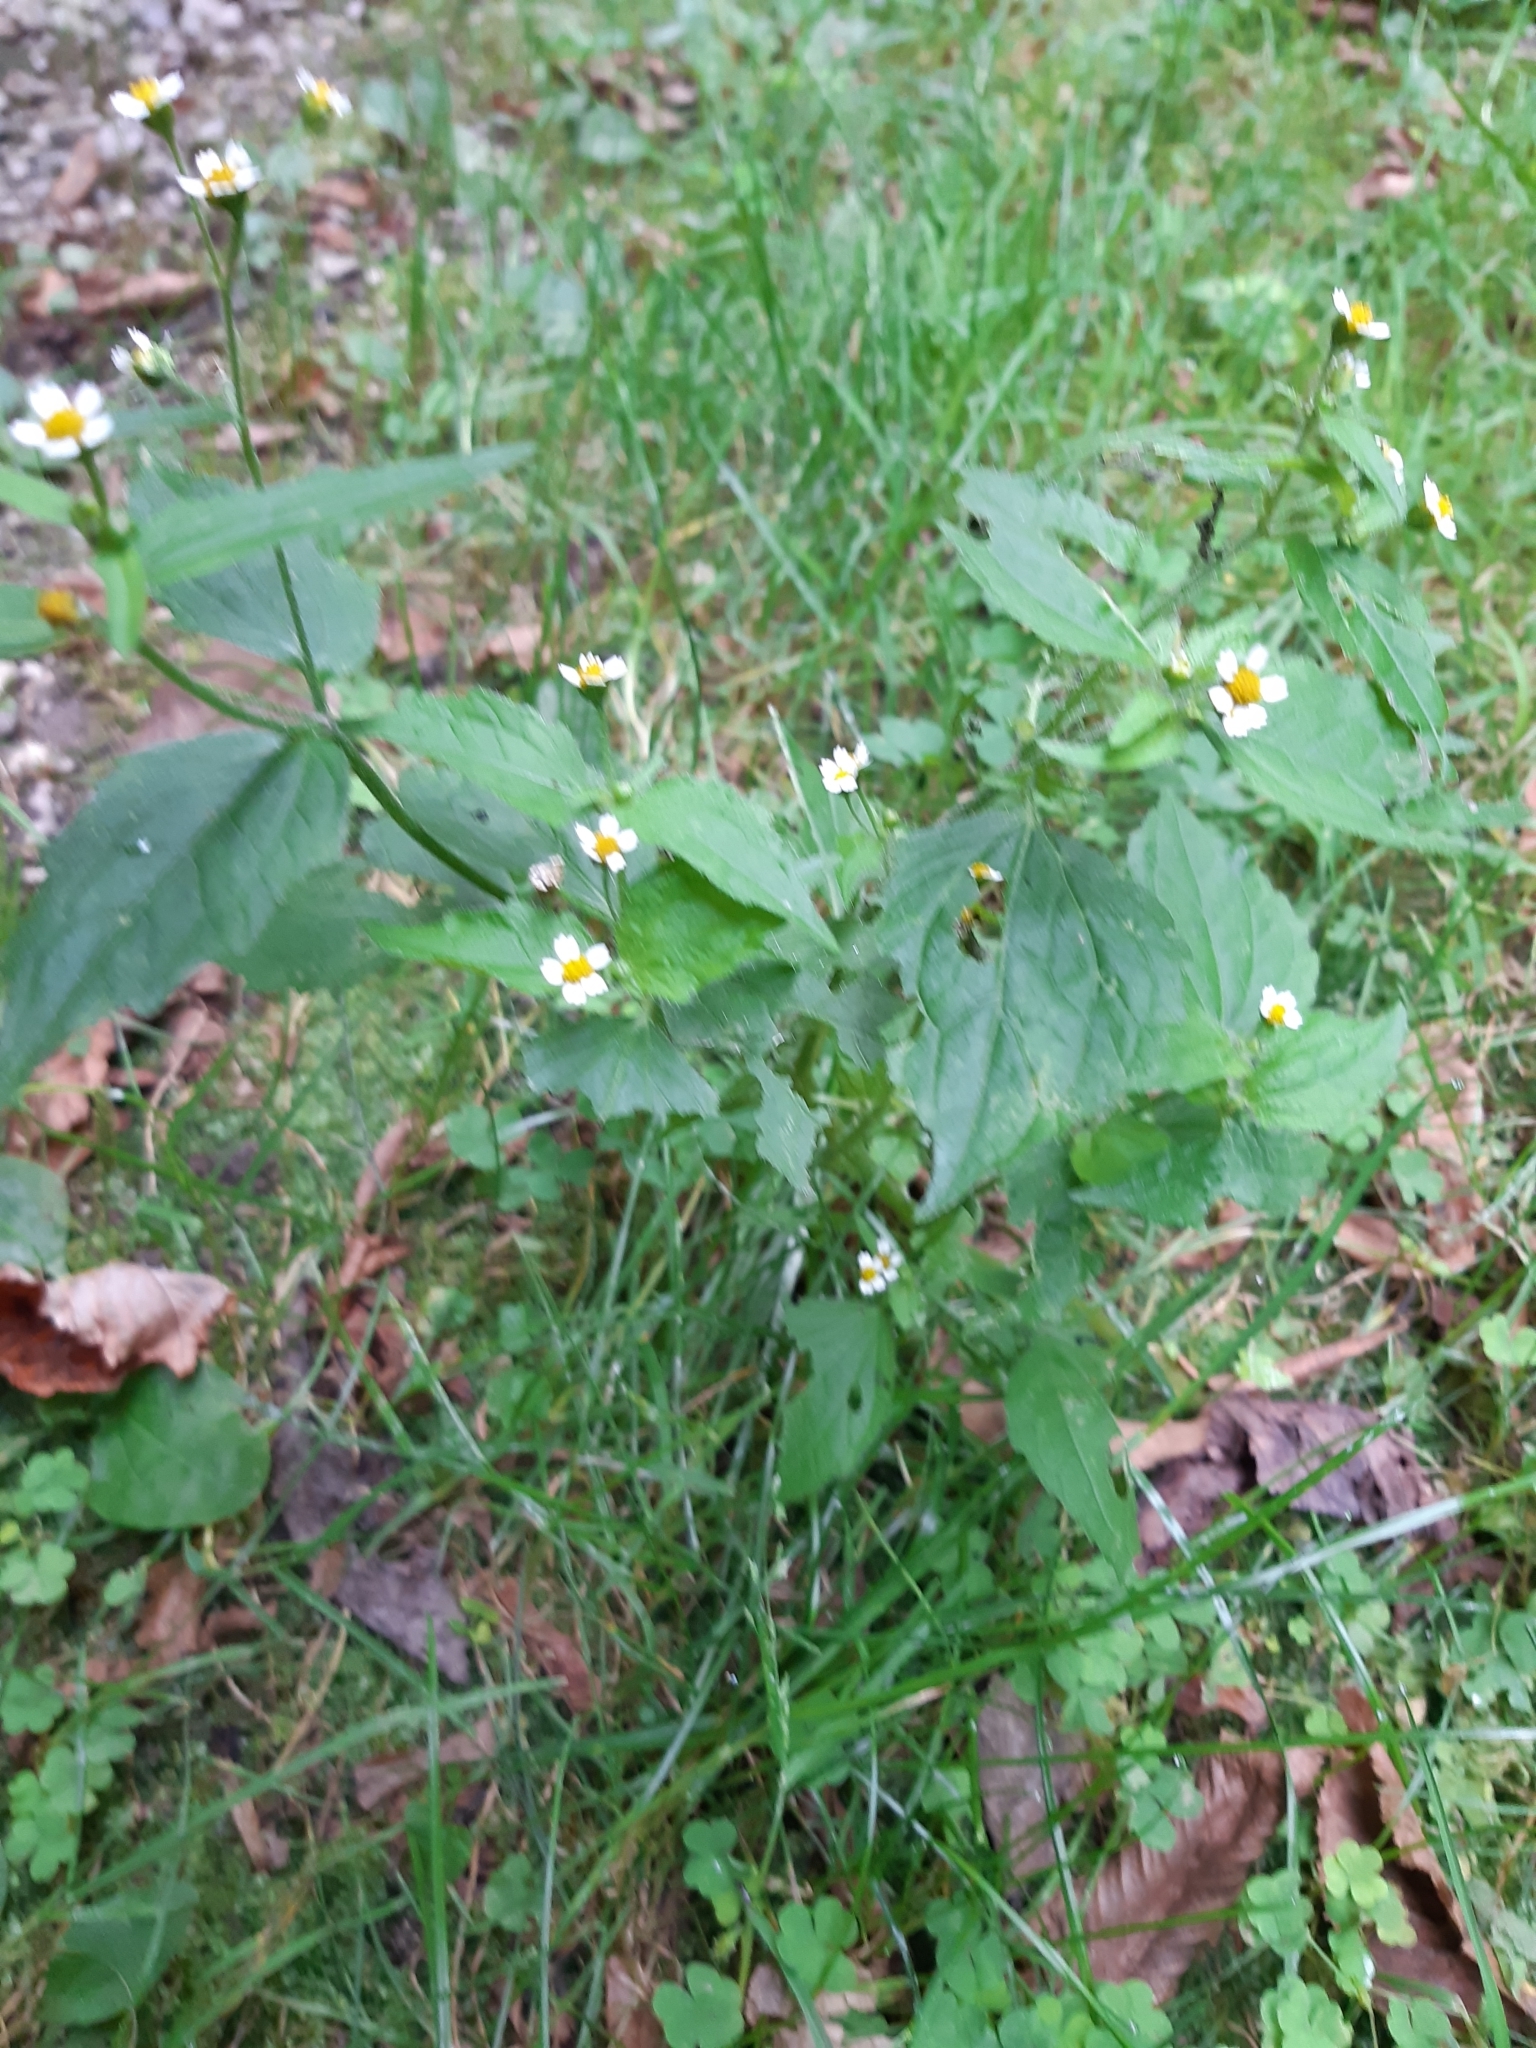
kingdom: Plantae
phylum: Tracheophyta
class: Magnoliopsida
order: Asterales
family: Asteraceae
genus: Galinsoga
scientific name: Galinsoga quadriradiata
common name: Shaggy soldier
